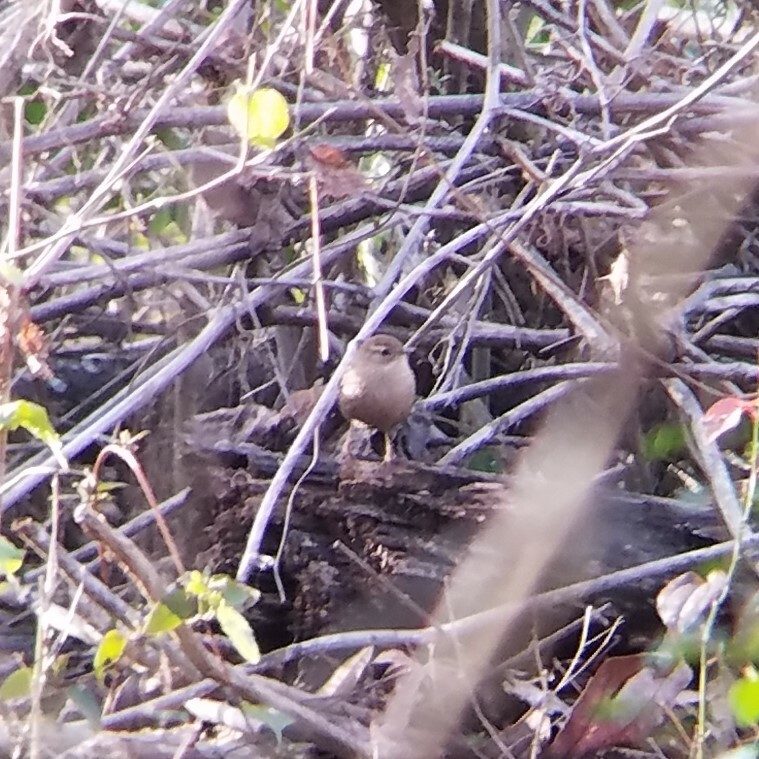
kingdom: Animalia
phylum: Chordata
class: Aves
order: Passeriformes
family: Troglodytidae
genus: Troglodytes
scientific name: Troglodytes hiemalis
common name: Winter wren
